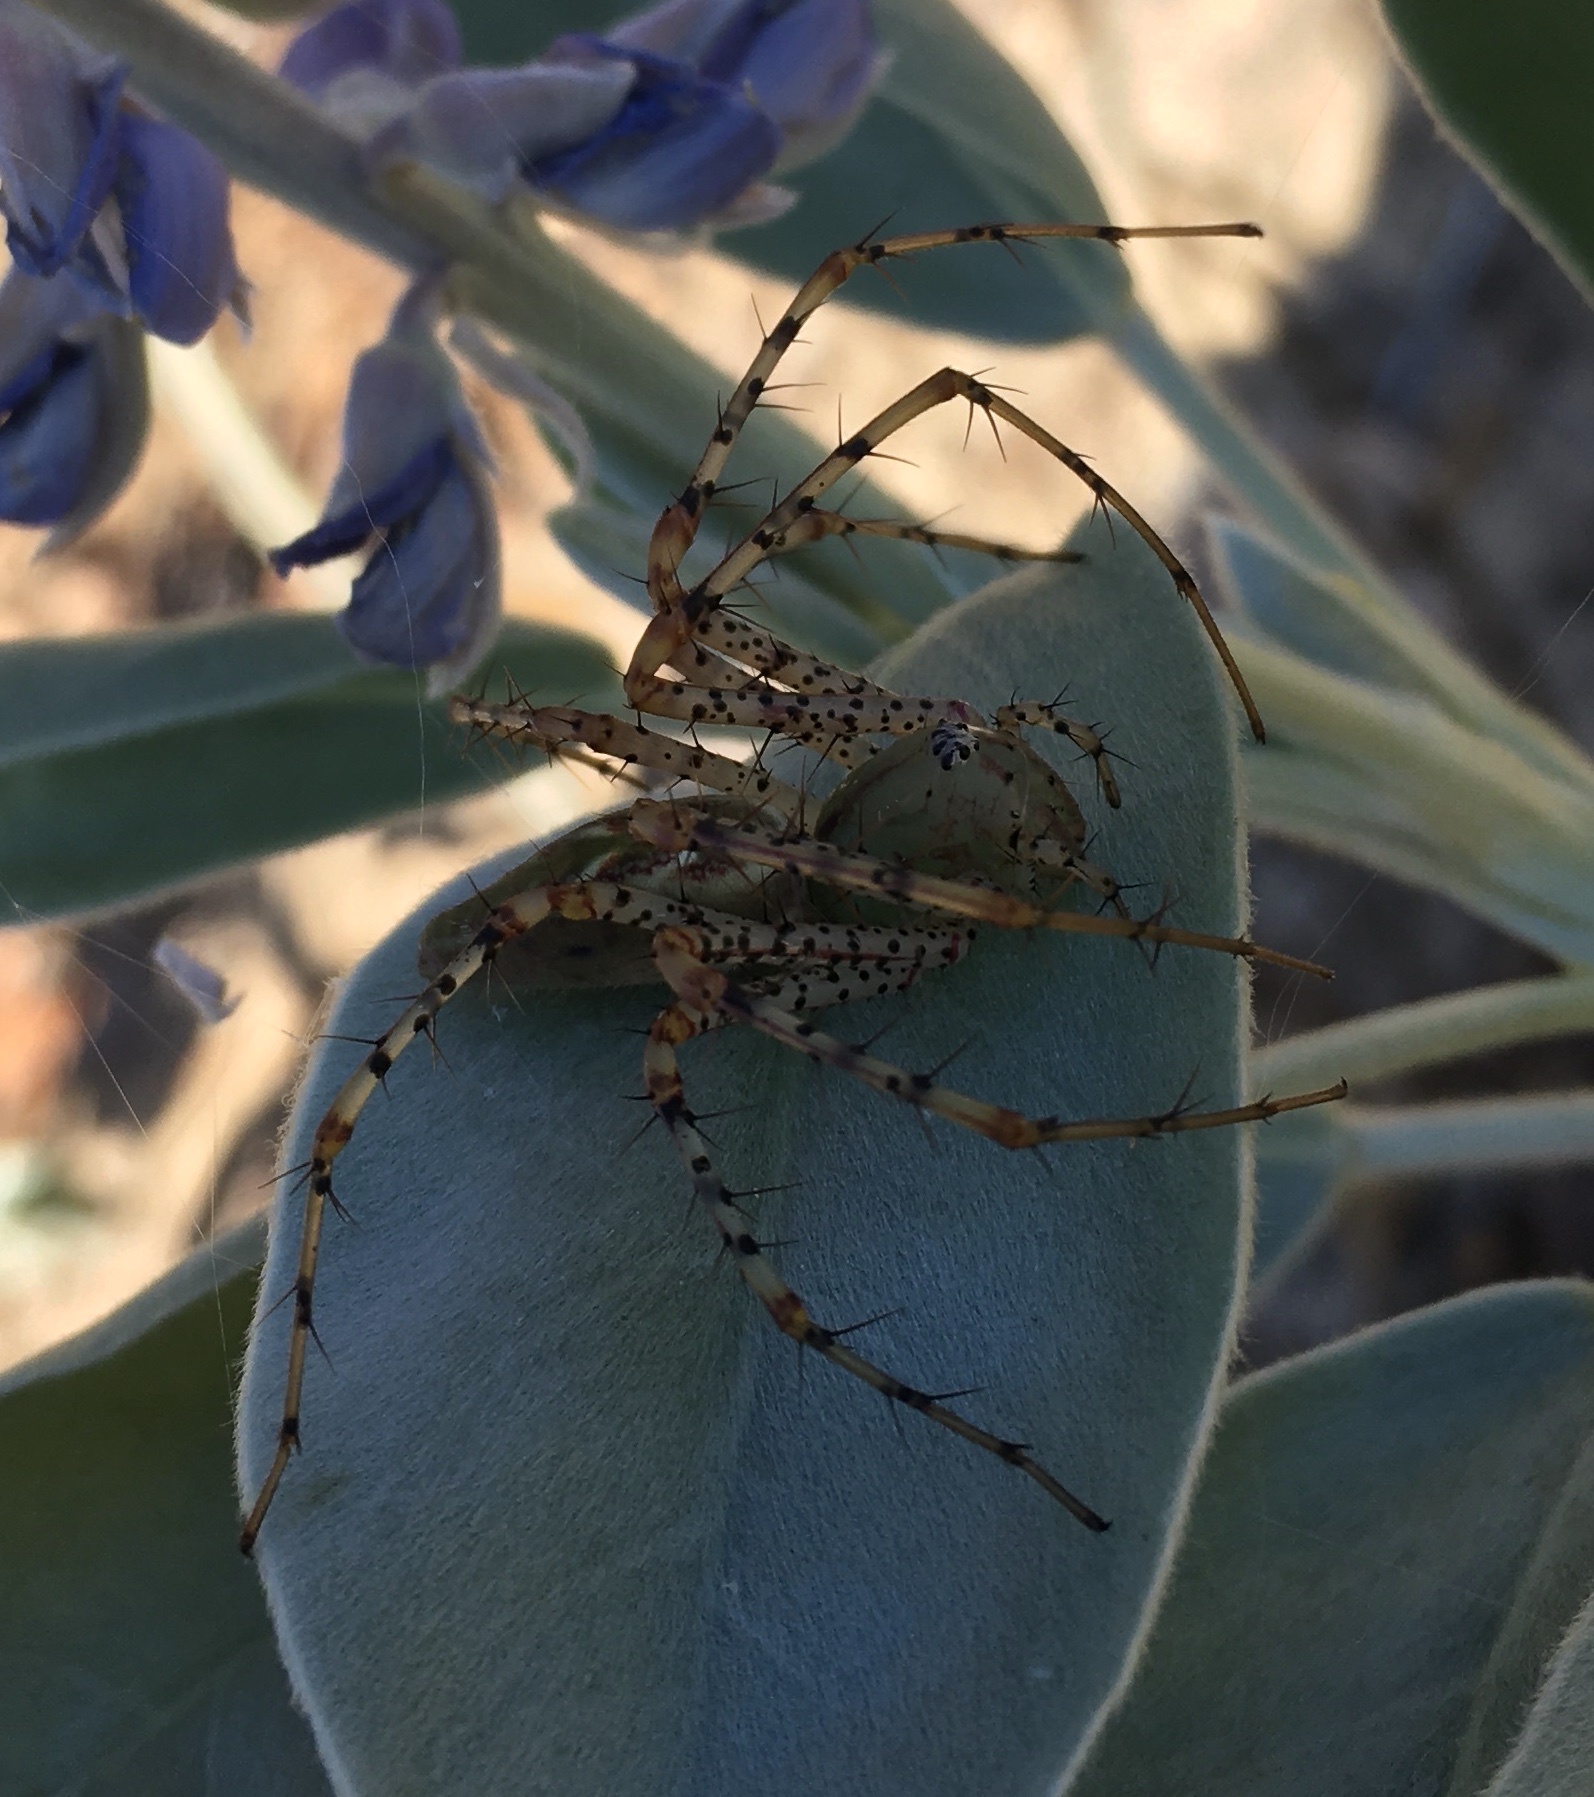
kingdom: Animalia
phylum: Arthropoda
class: Arachnida
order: Araneae
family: Oxyopidae
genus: Peucetia
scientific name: Peucetia viridans
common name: Lynx spiders
